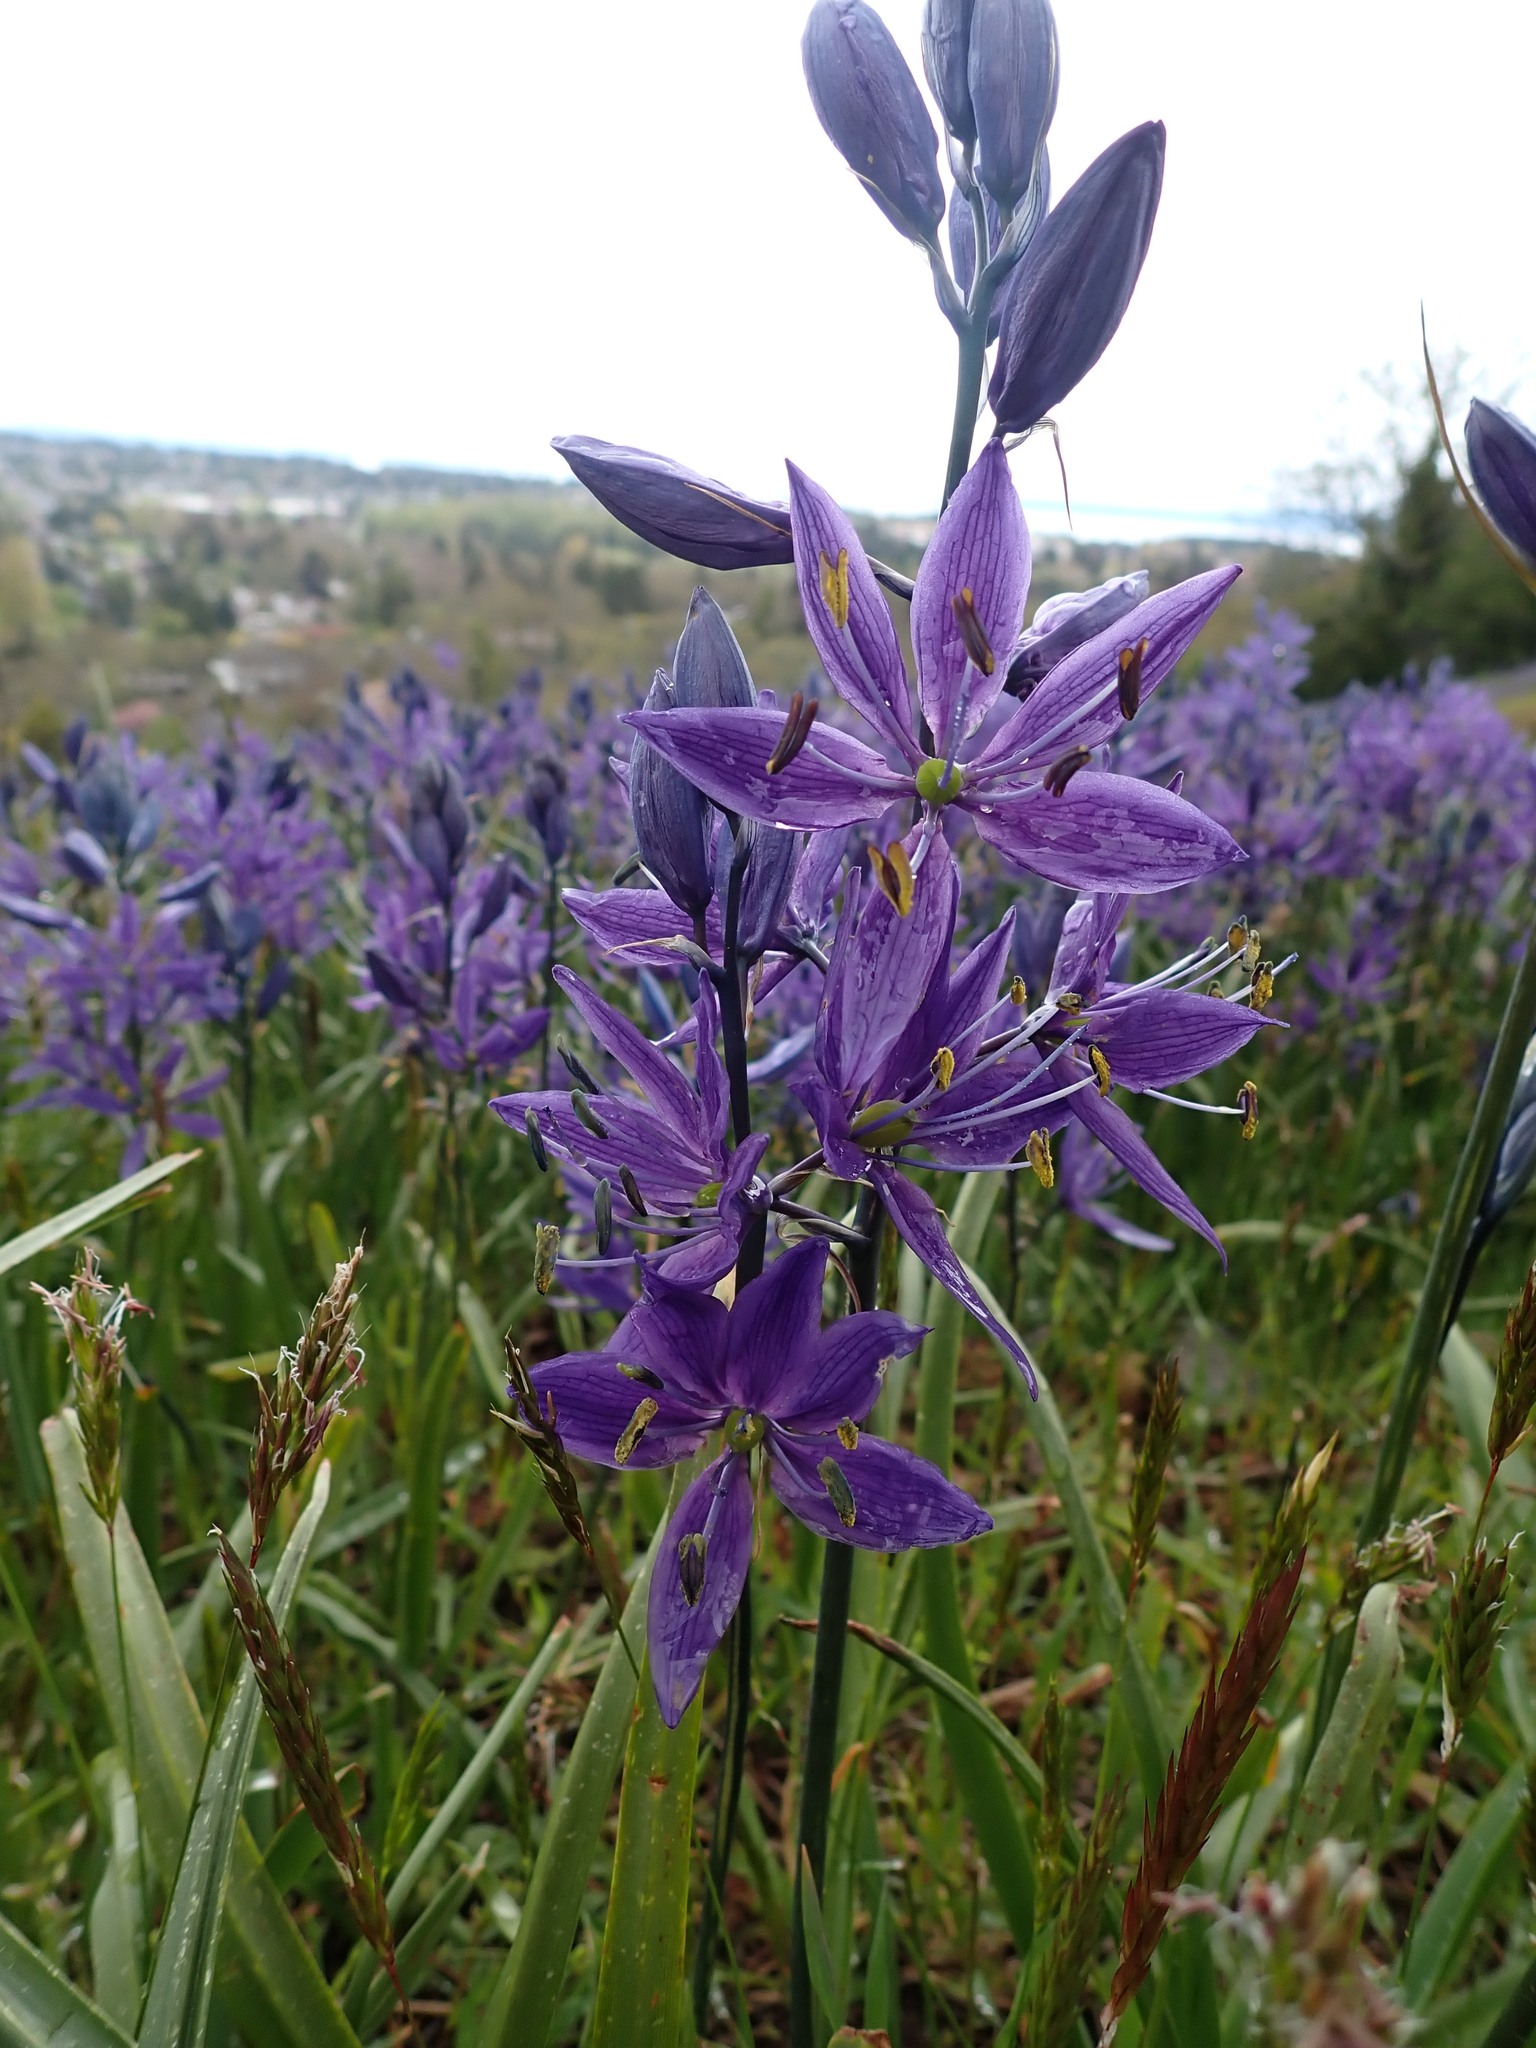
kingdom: Plantae
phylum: Tracheophyta
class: Liliopsida
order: Asparagales
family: Asparagaceae
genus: Camassia
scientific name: Camassia quamash
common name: Common camas
